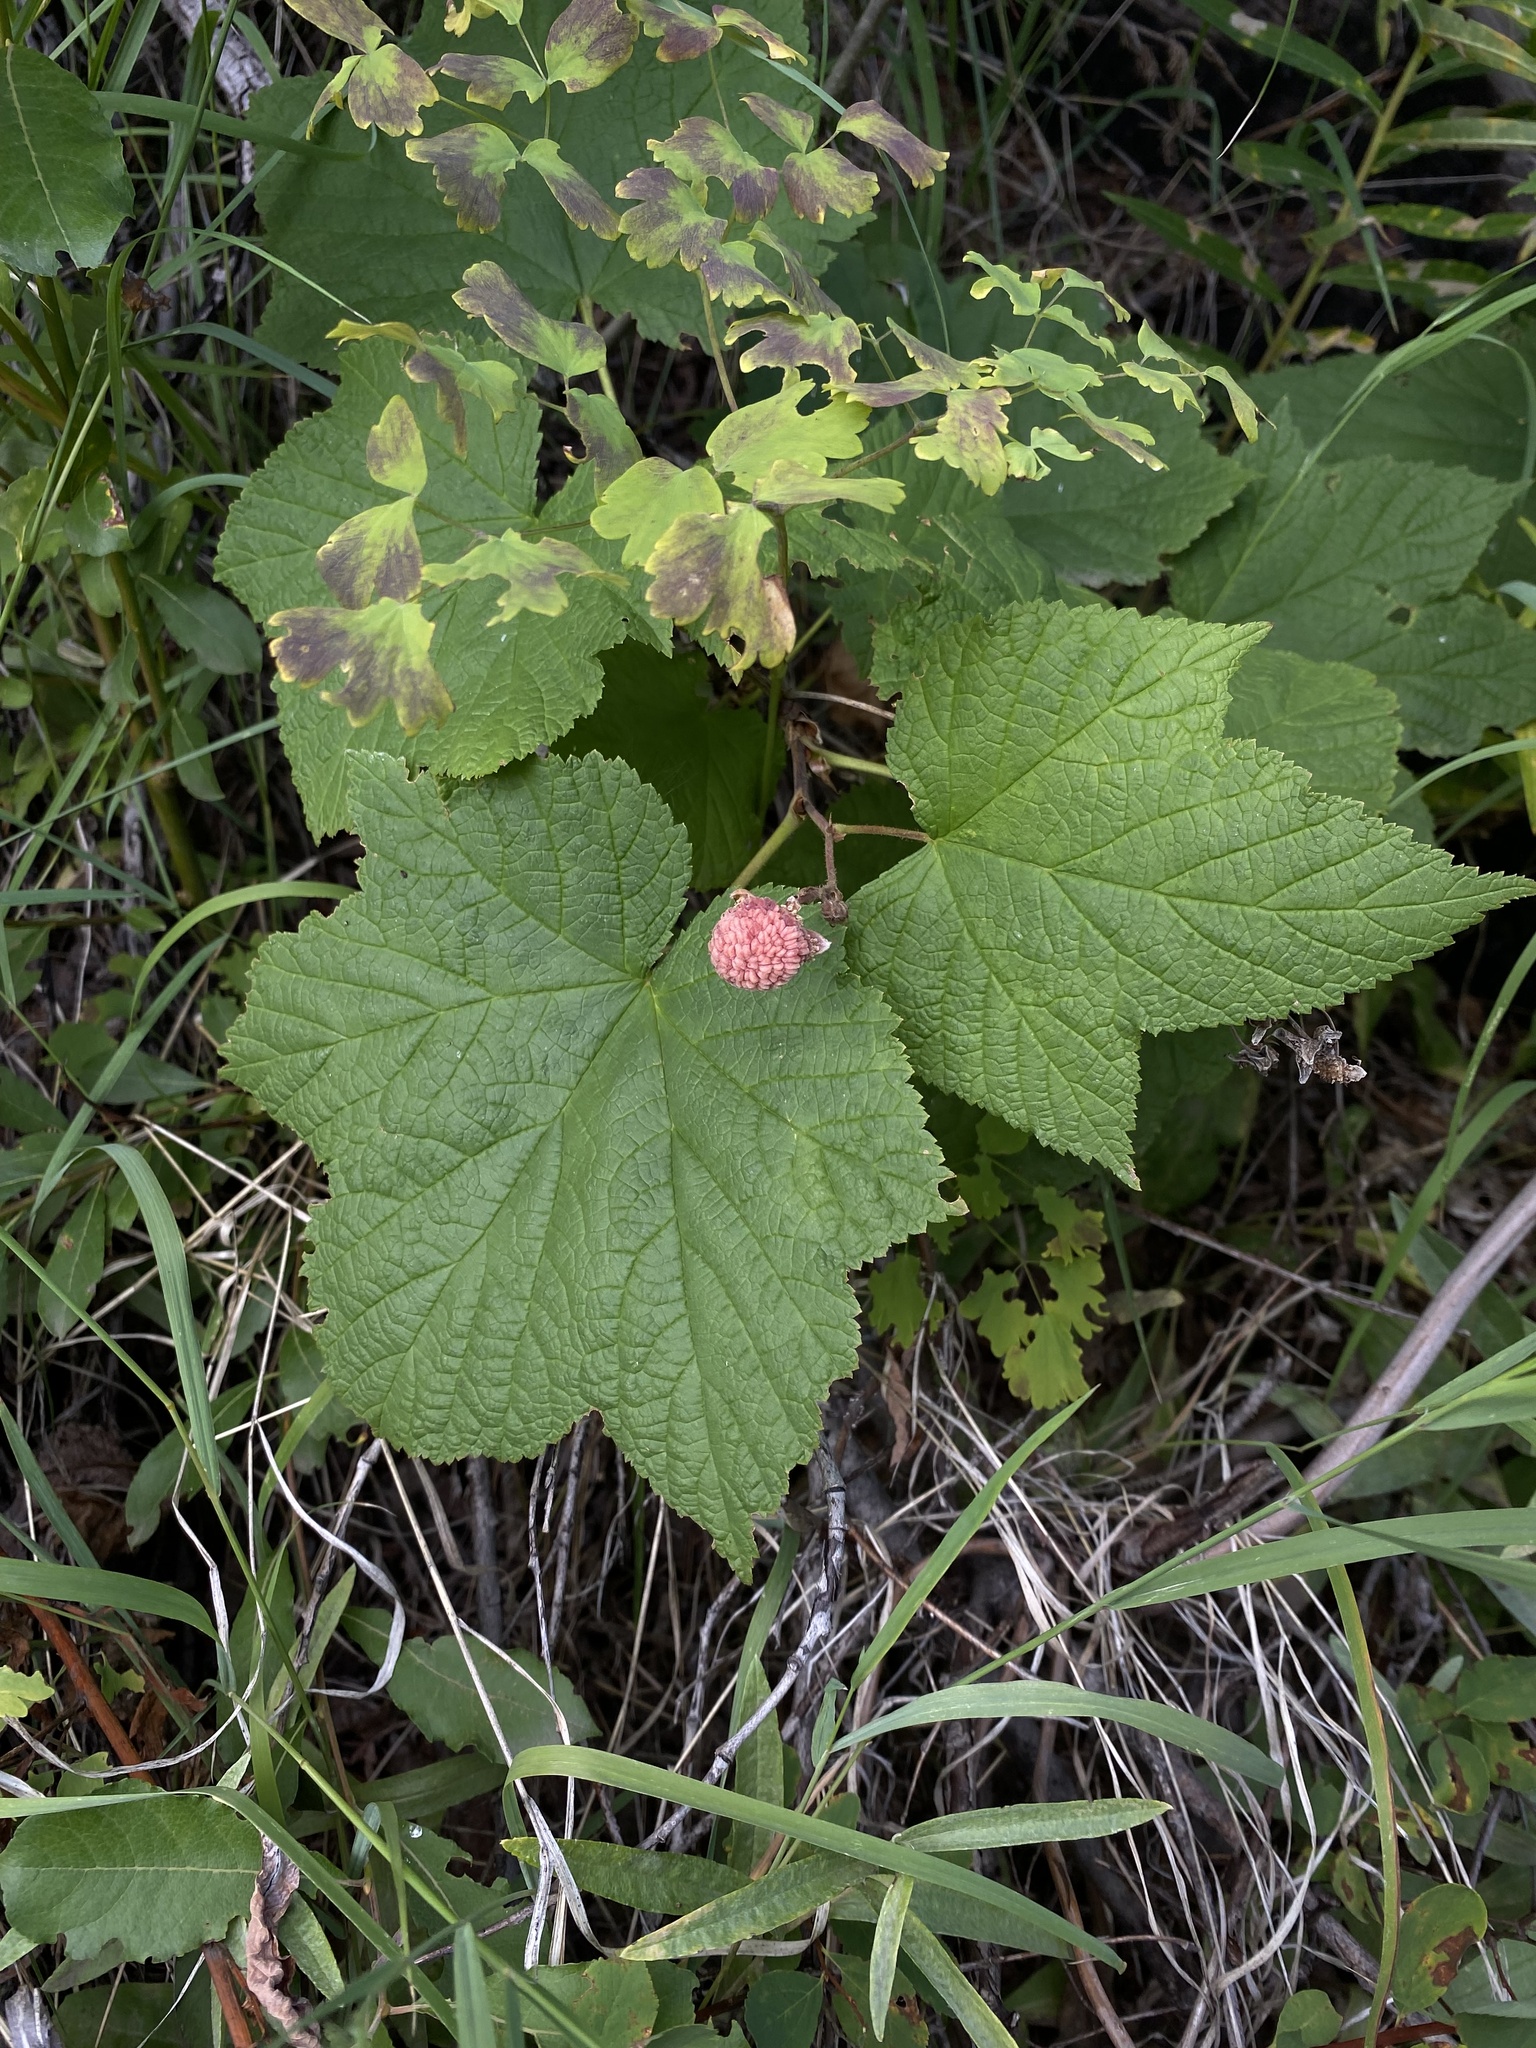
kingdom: Plantae
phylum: Tracheophyta
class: Magnoliopsida
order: Rosales
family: Rosaceae
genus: Rubus
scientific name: Rubus parviflorus
